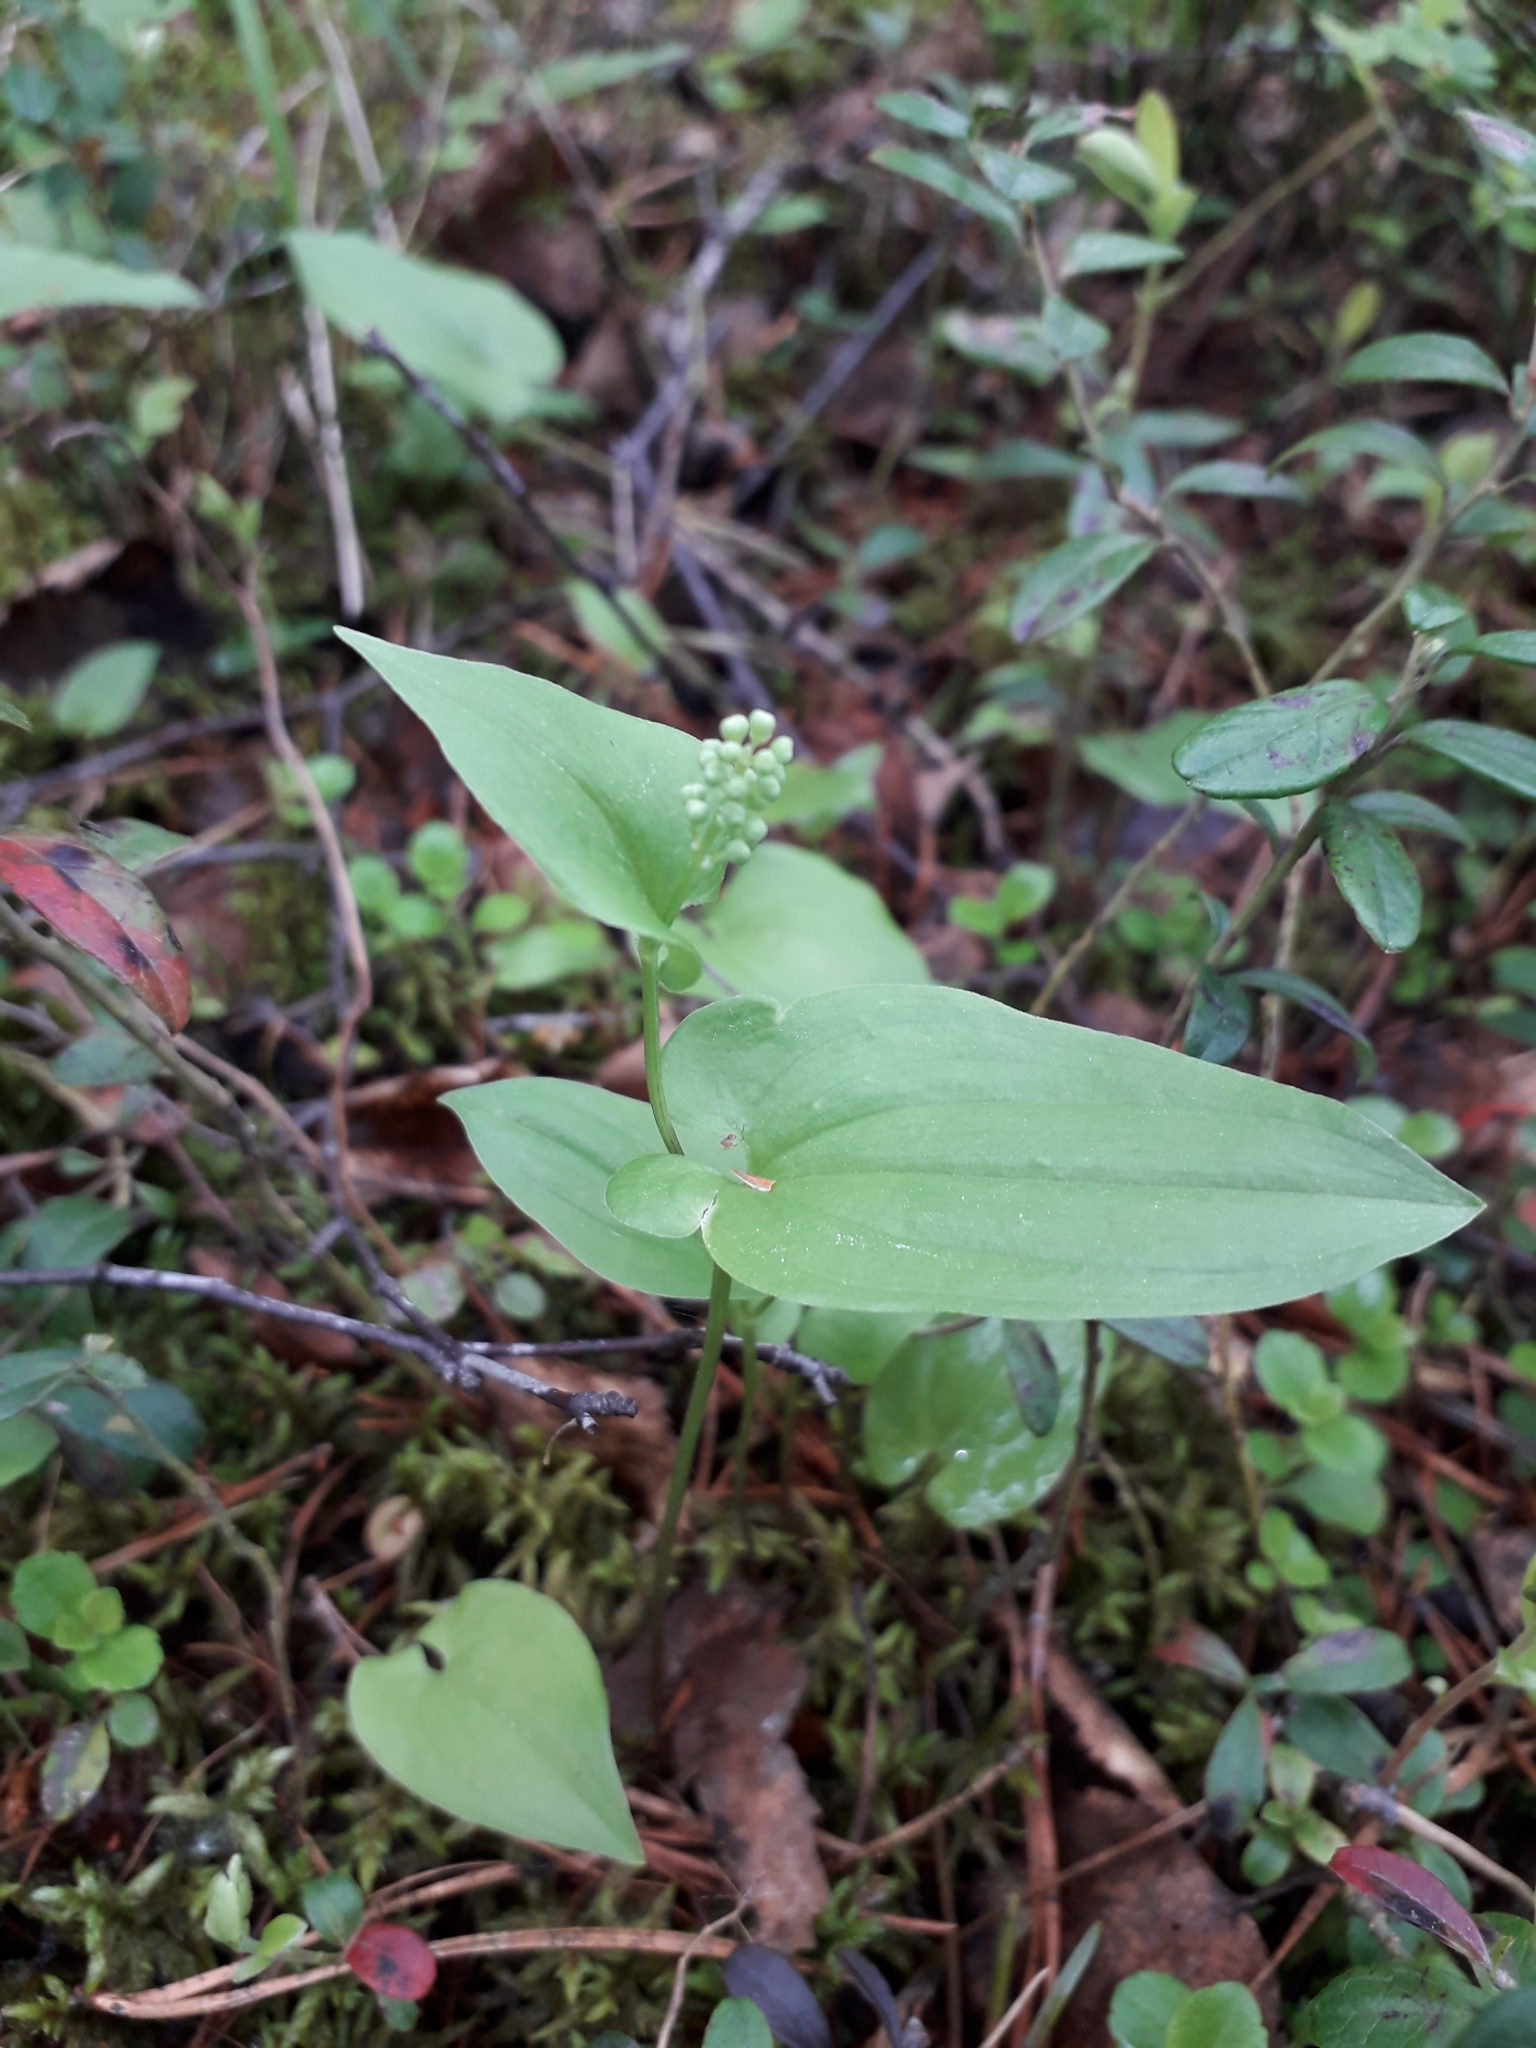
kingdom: Plantae
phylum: Tracheophyta
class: Liliopsida
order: Asparagales
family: Asparagaceae
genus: Maianthemum
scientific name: Maianthemum bifolium
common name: May lily
